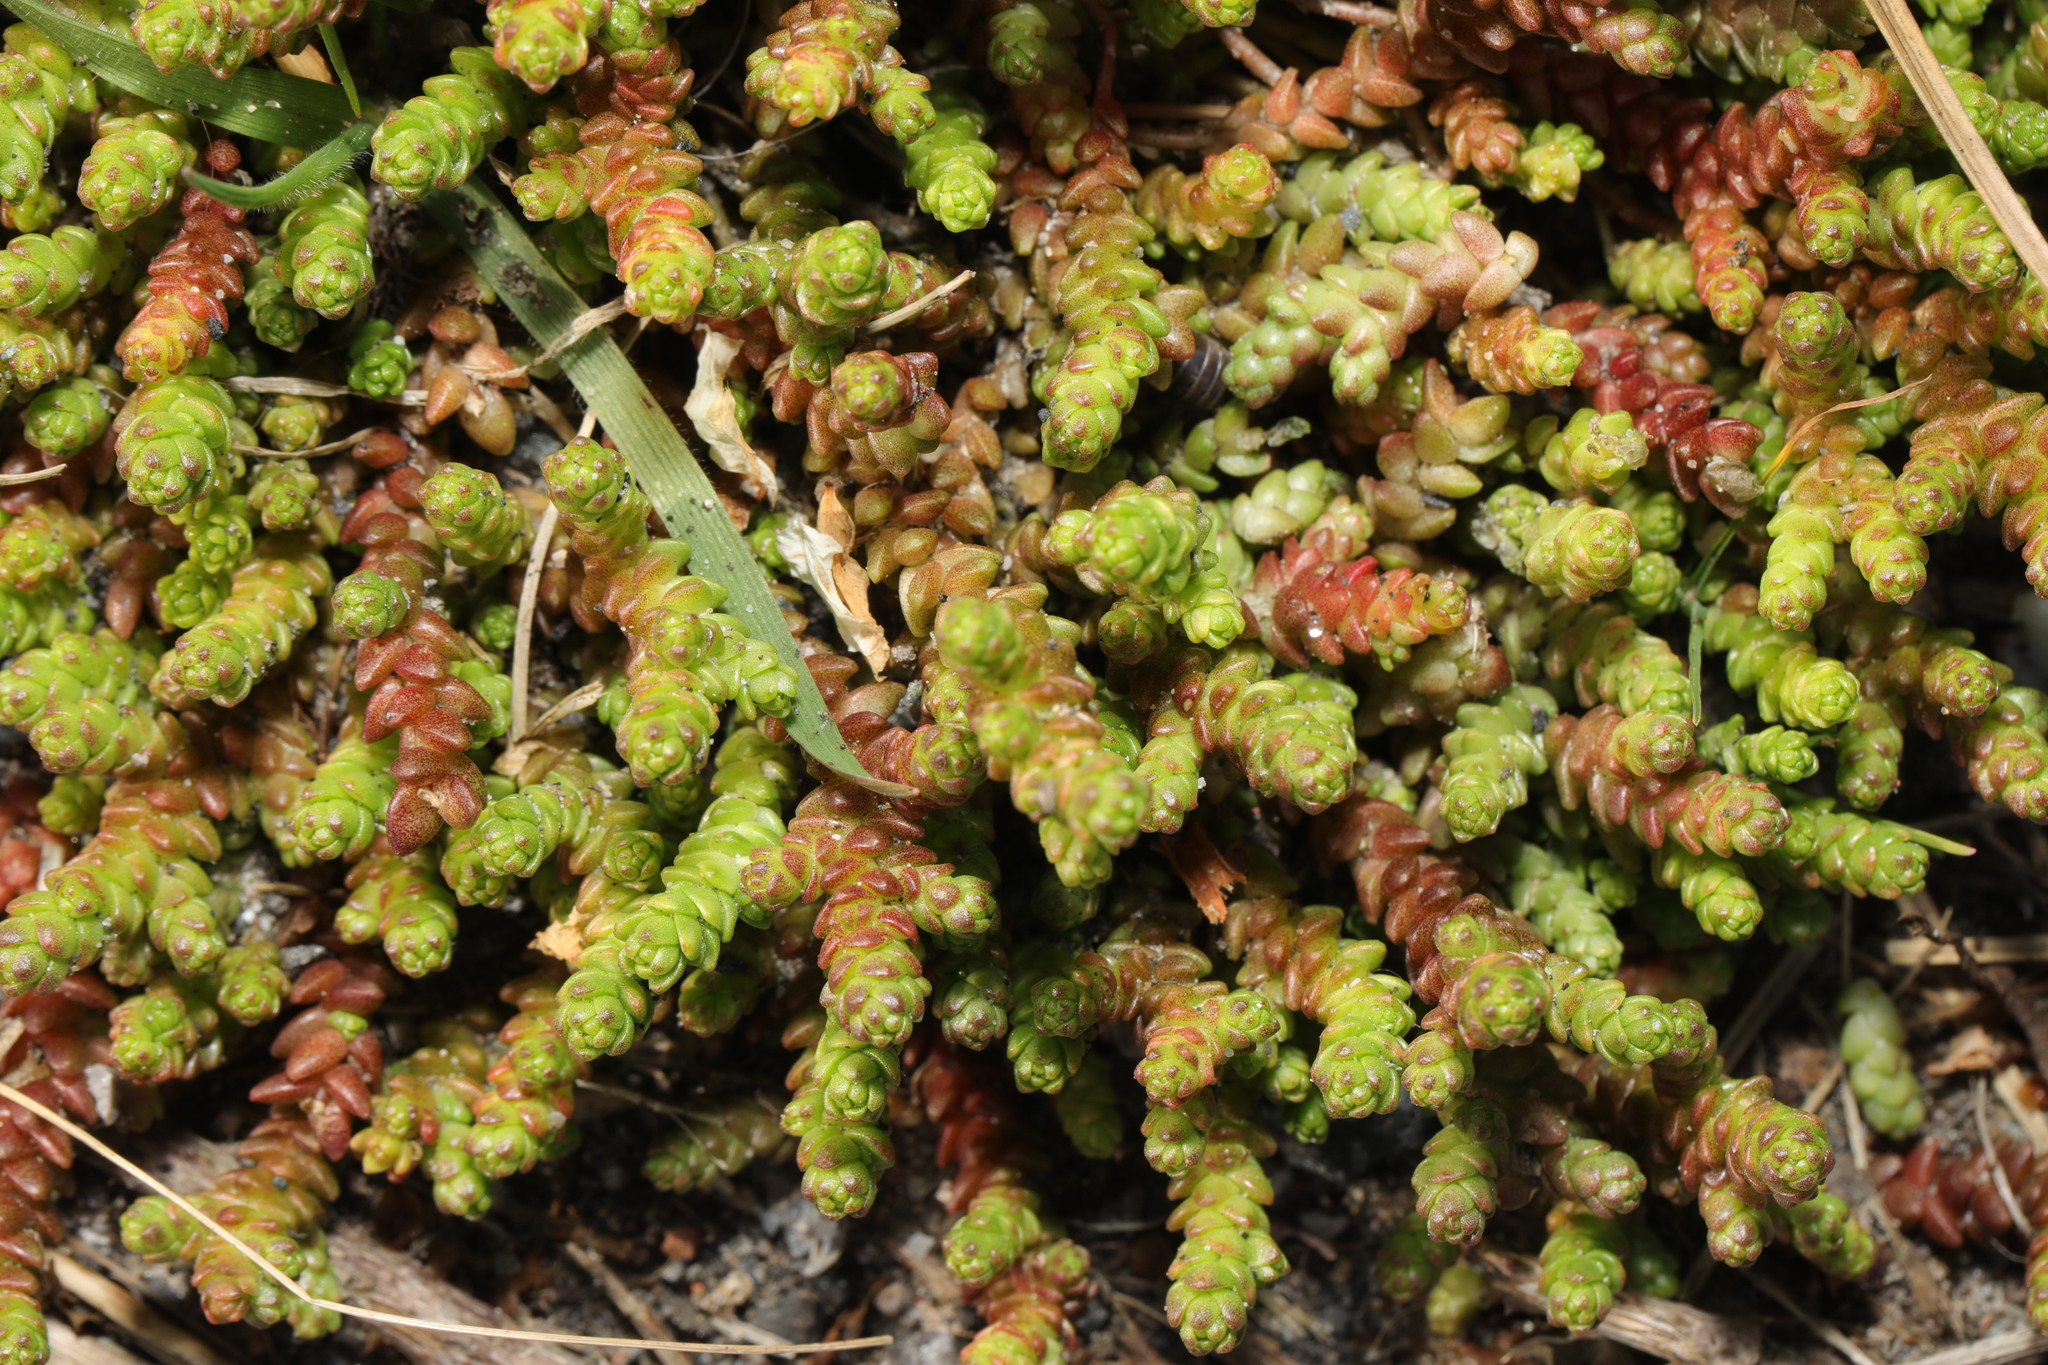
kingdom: Plantae
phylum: Tracheophyta
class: Magnoliopsida
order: Saxifragales
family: Crassulaceae
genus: Sedum
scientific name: Sedum acre
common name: Biting stonecrop
